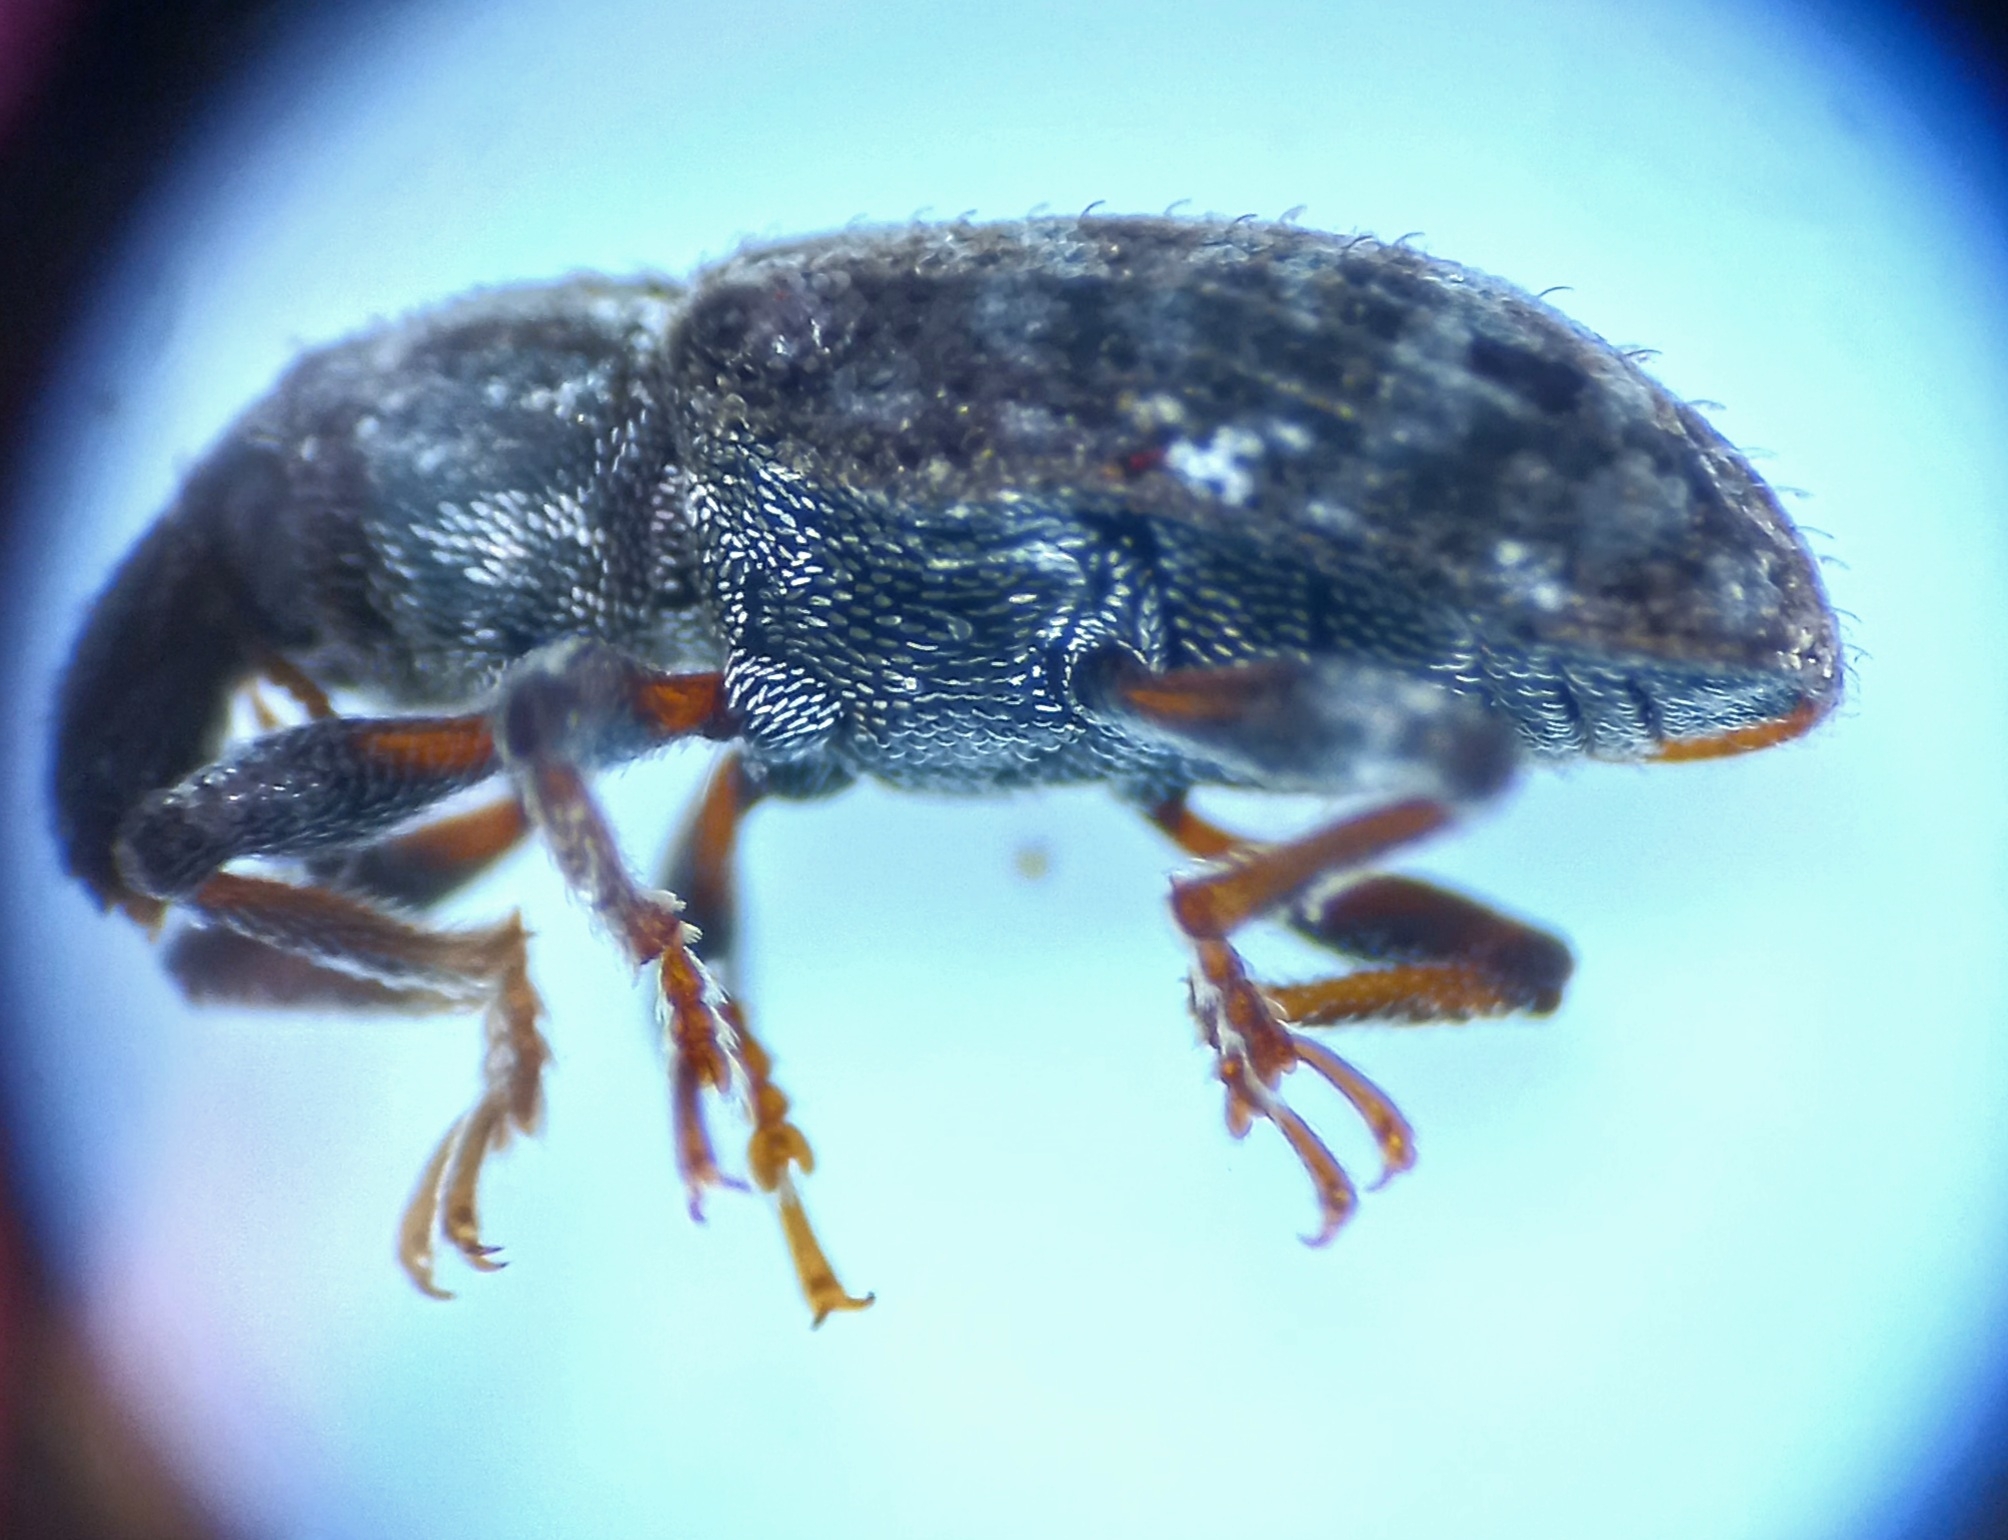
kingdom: Animalia
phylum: Arthropoda
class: Insecta
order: Coleoptera
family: Curculionidae
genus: Listronotus
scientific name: Listronotus bonariensis
